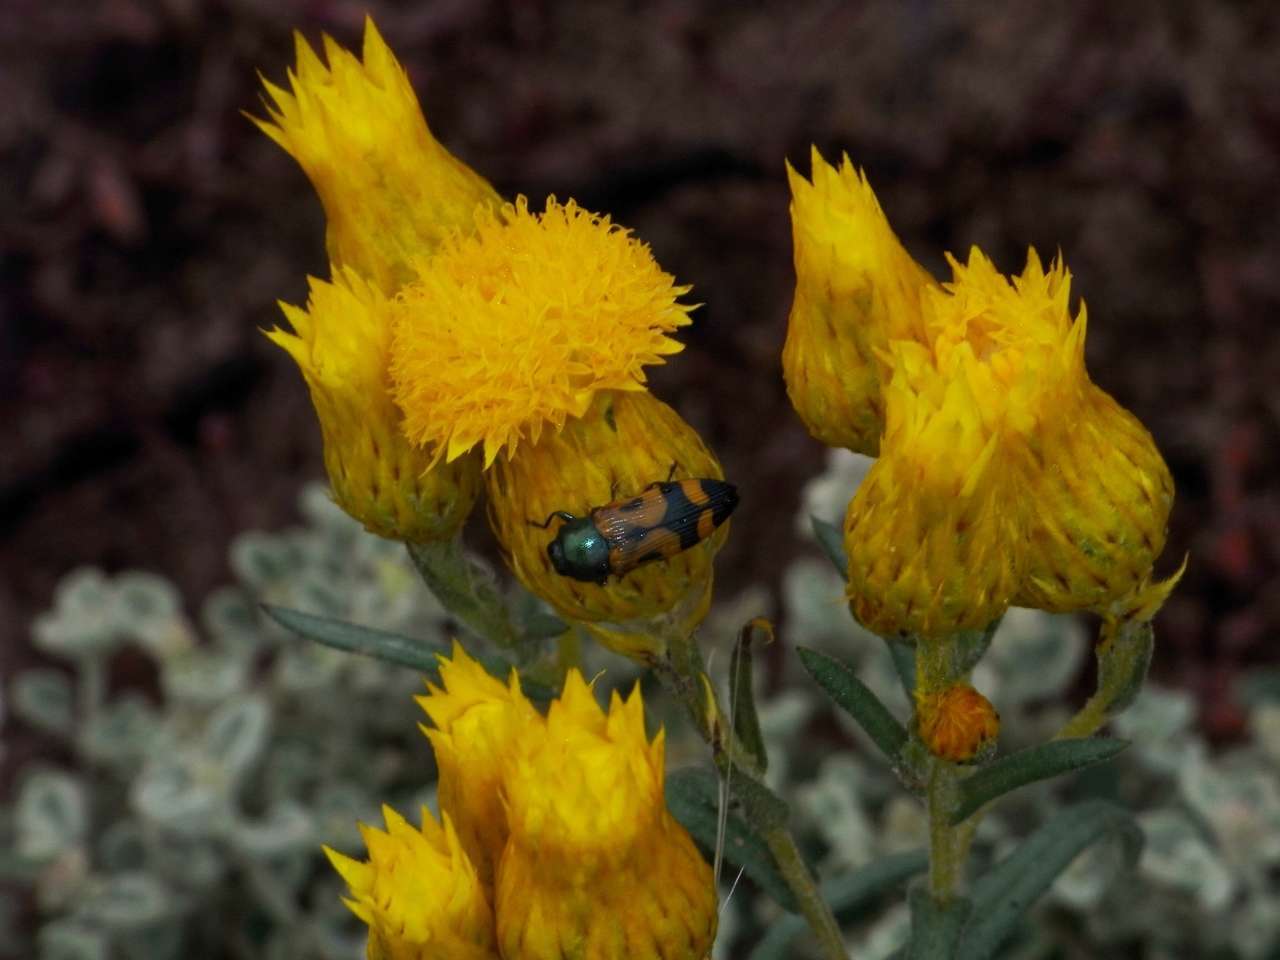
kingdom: Plantae
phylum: Tracheophyta
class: Magnoliopsida
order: Asterales
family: Asteraceae
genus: Waitzia
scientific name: Waitzia acuminata
